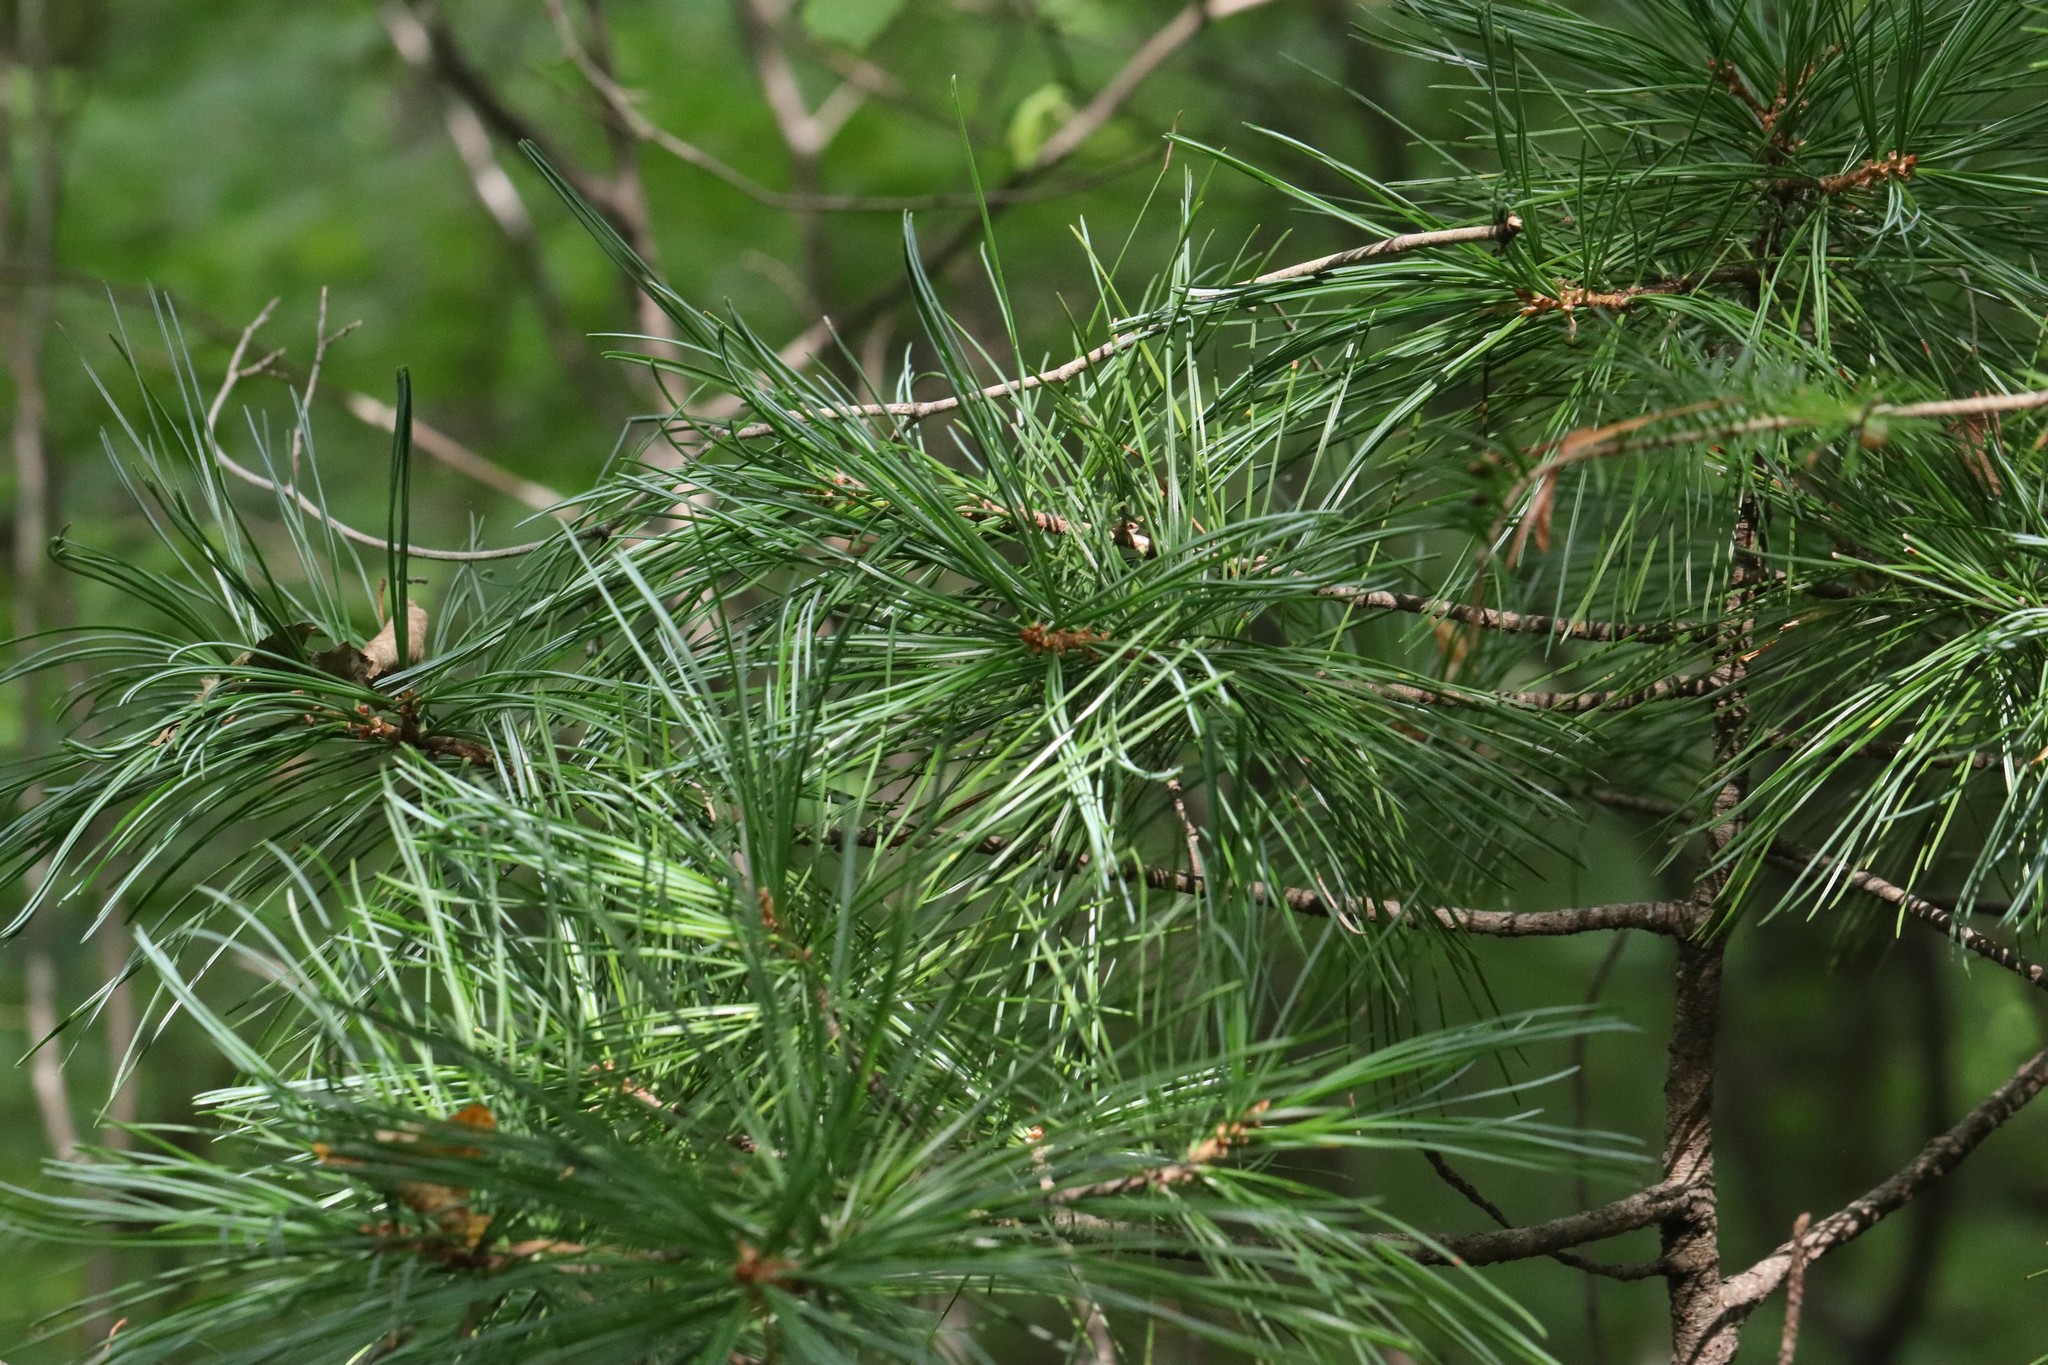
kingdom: Plantae
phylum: Tracheophyta
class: Pinopsida
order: Pinales
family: Pinaceae
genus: Pinus
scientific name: Pinus koraiensis
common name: Korean pine
